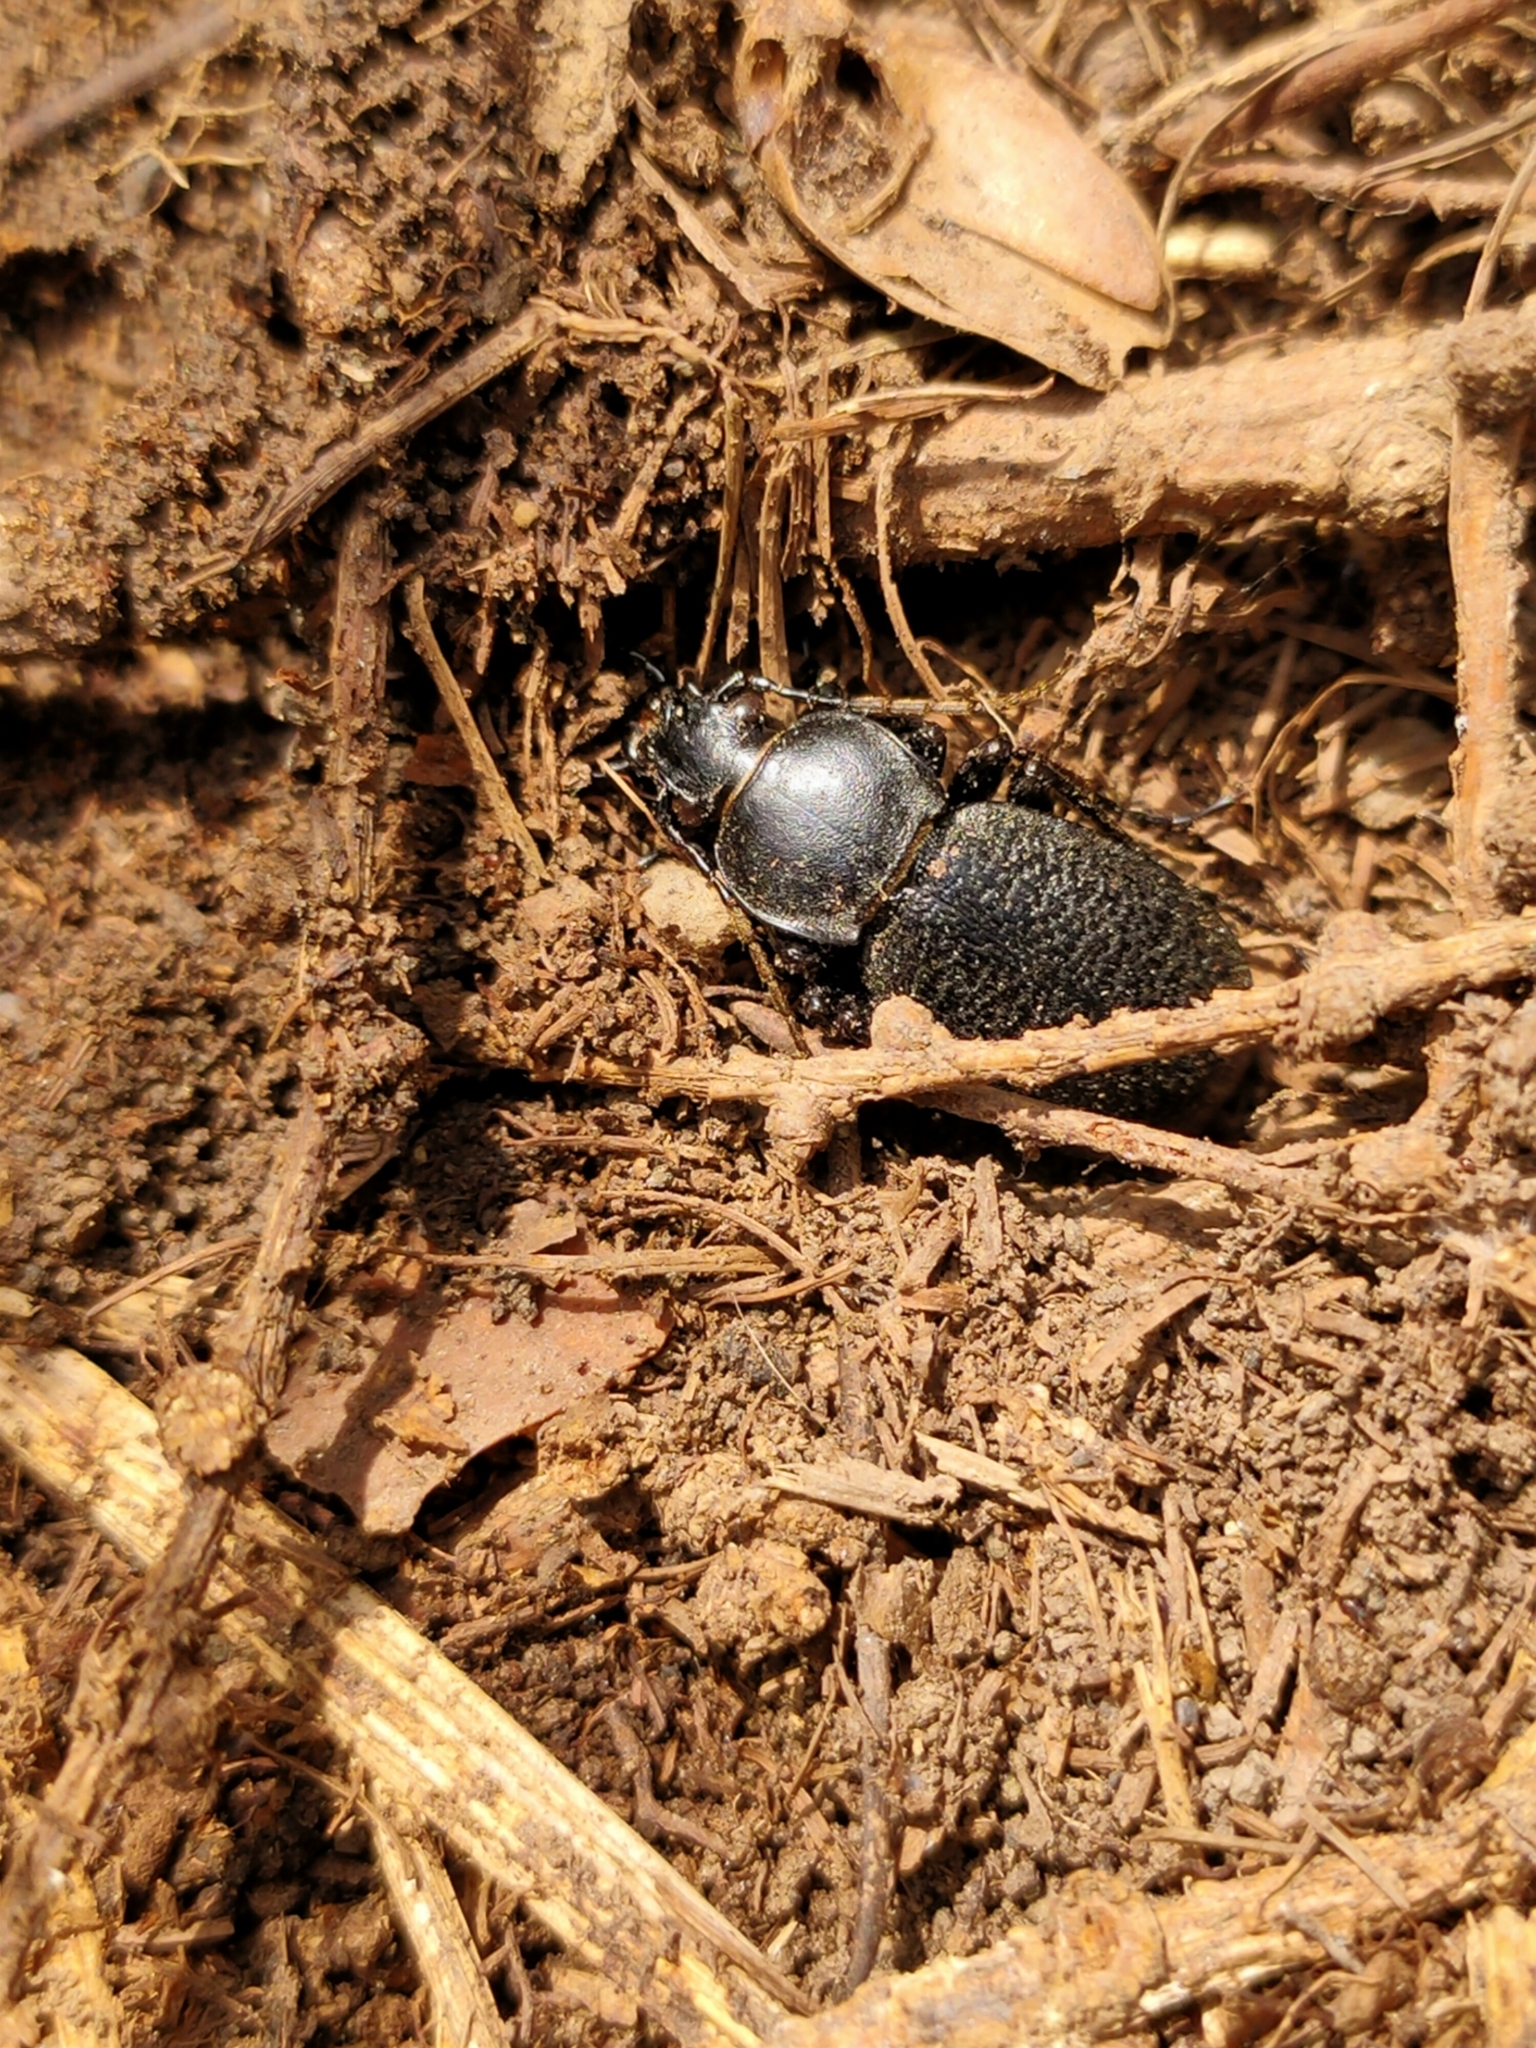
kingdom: Animalia
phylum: Arthropoda
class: Insecta
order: Coleoptera
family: Carabidae
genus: Carabus
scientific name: Carabus kruberi
